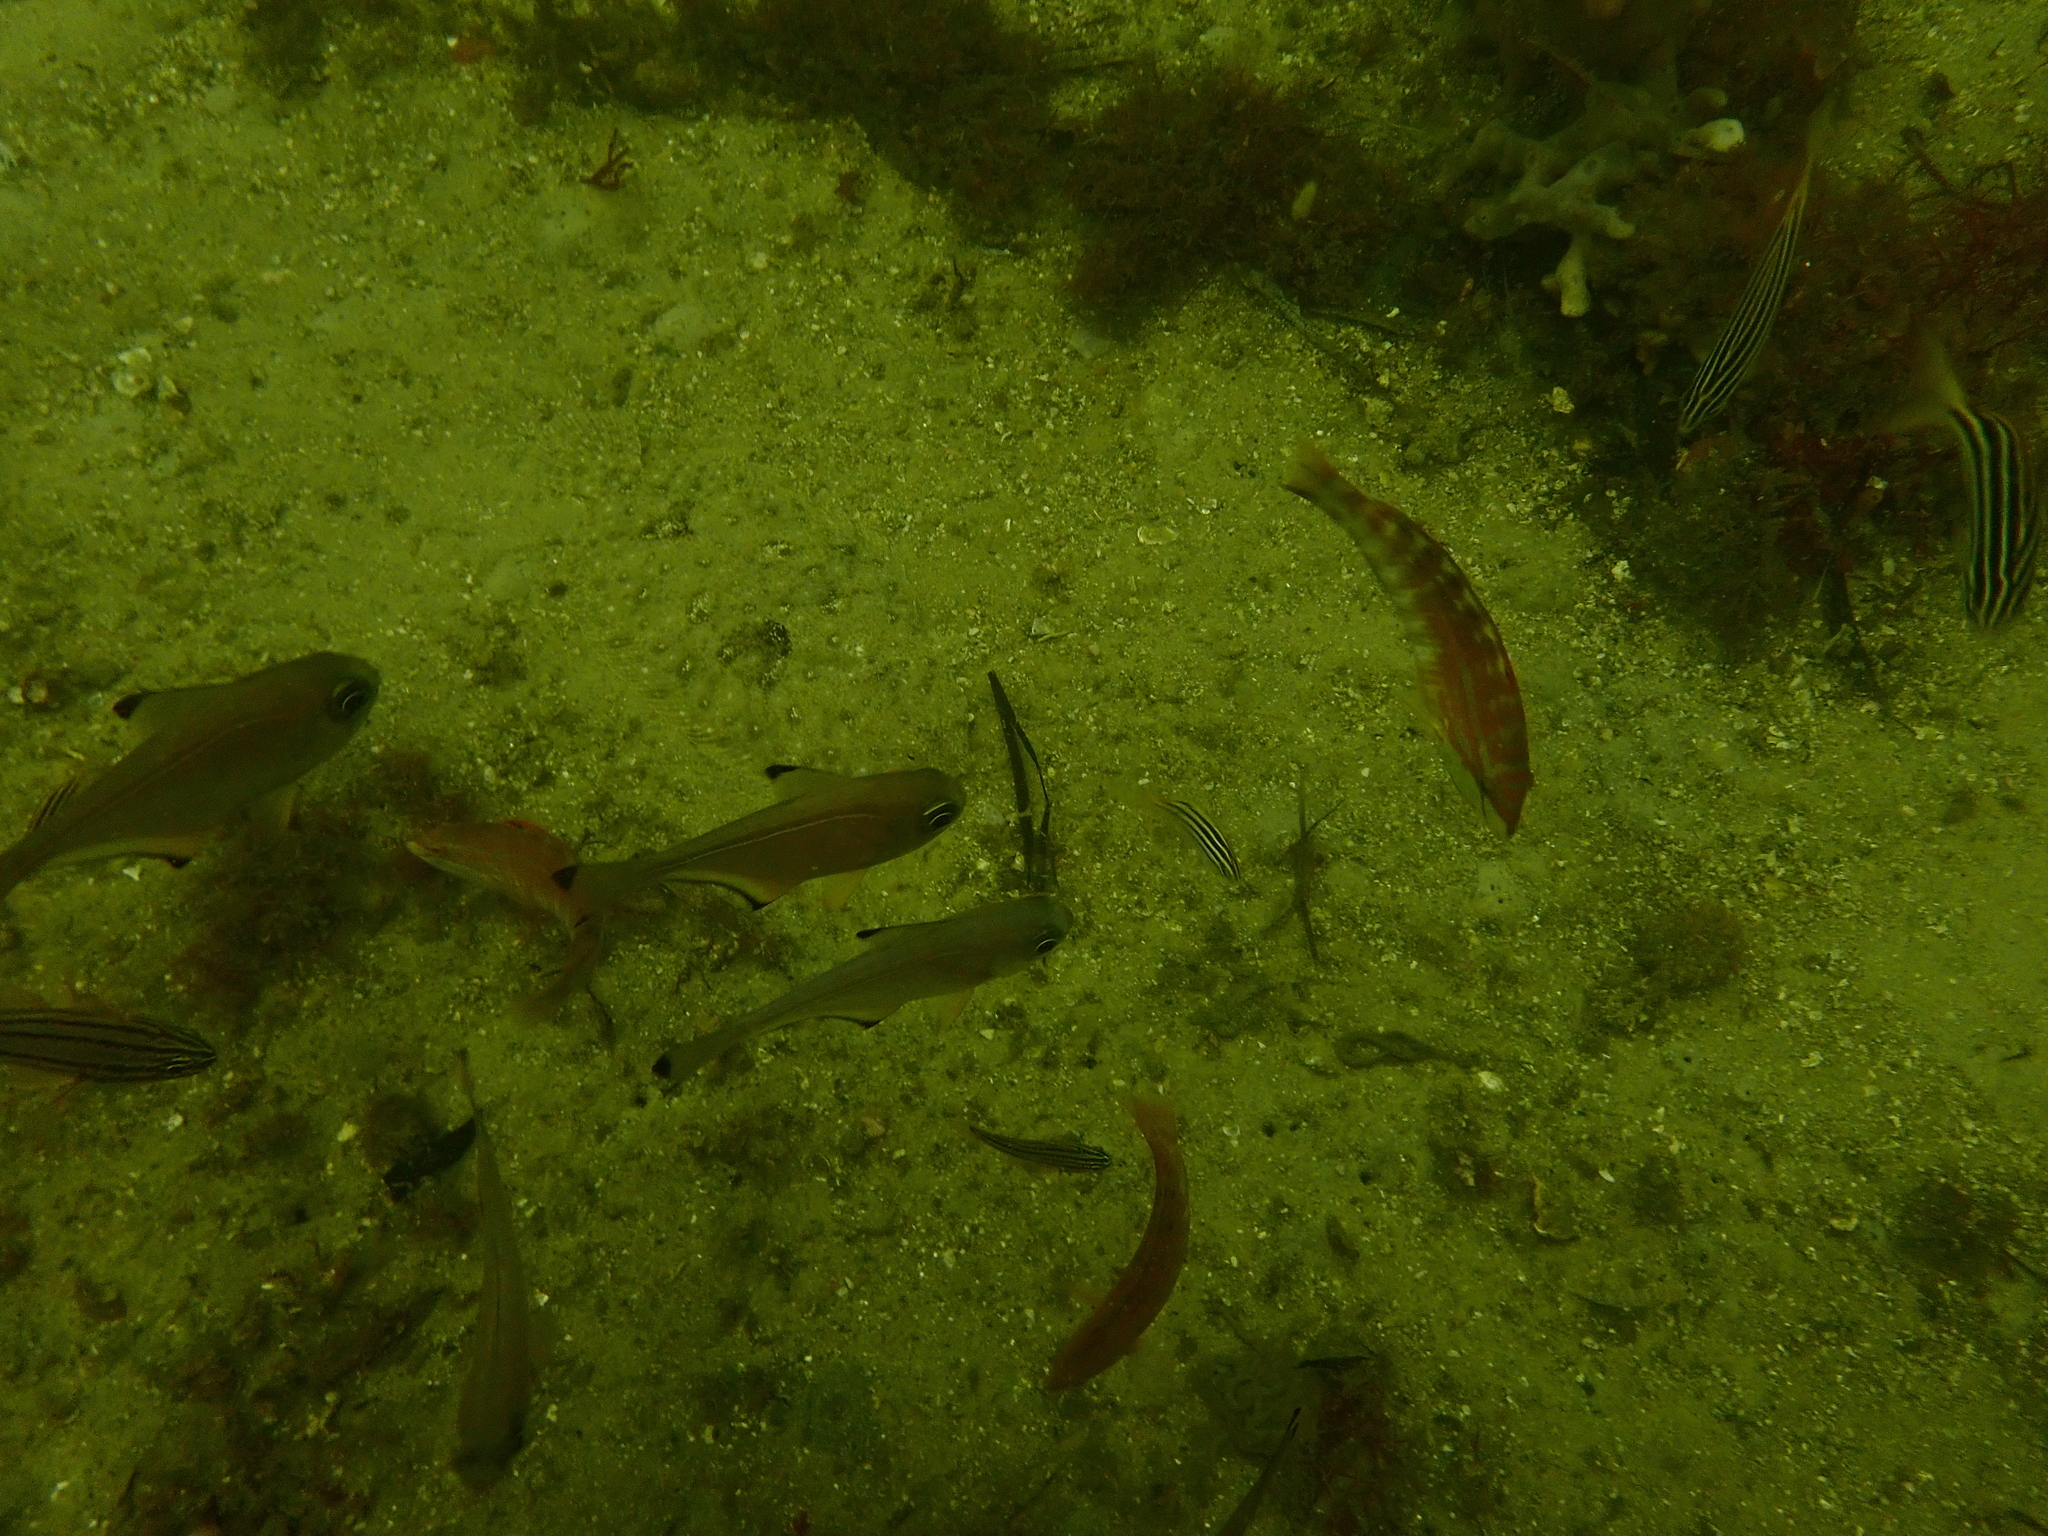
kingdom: Animalia
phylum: Chordata
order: Perciformes
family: Labridae
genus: Halichoeres
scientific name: Halichoeres nebulosus
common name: Clouded wrasse
